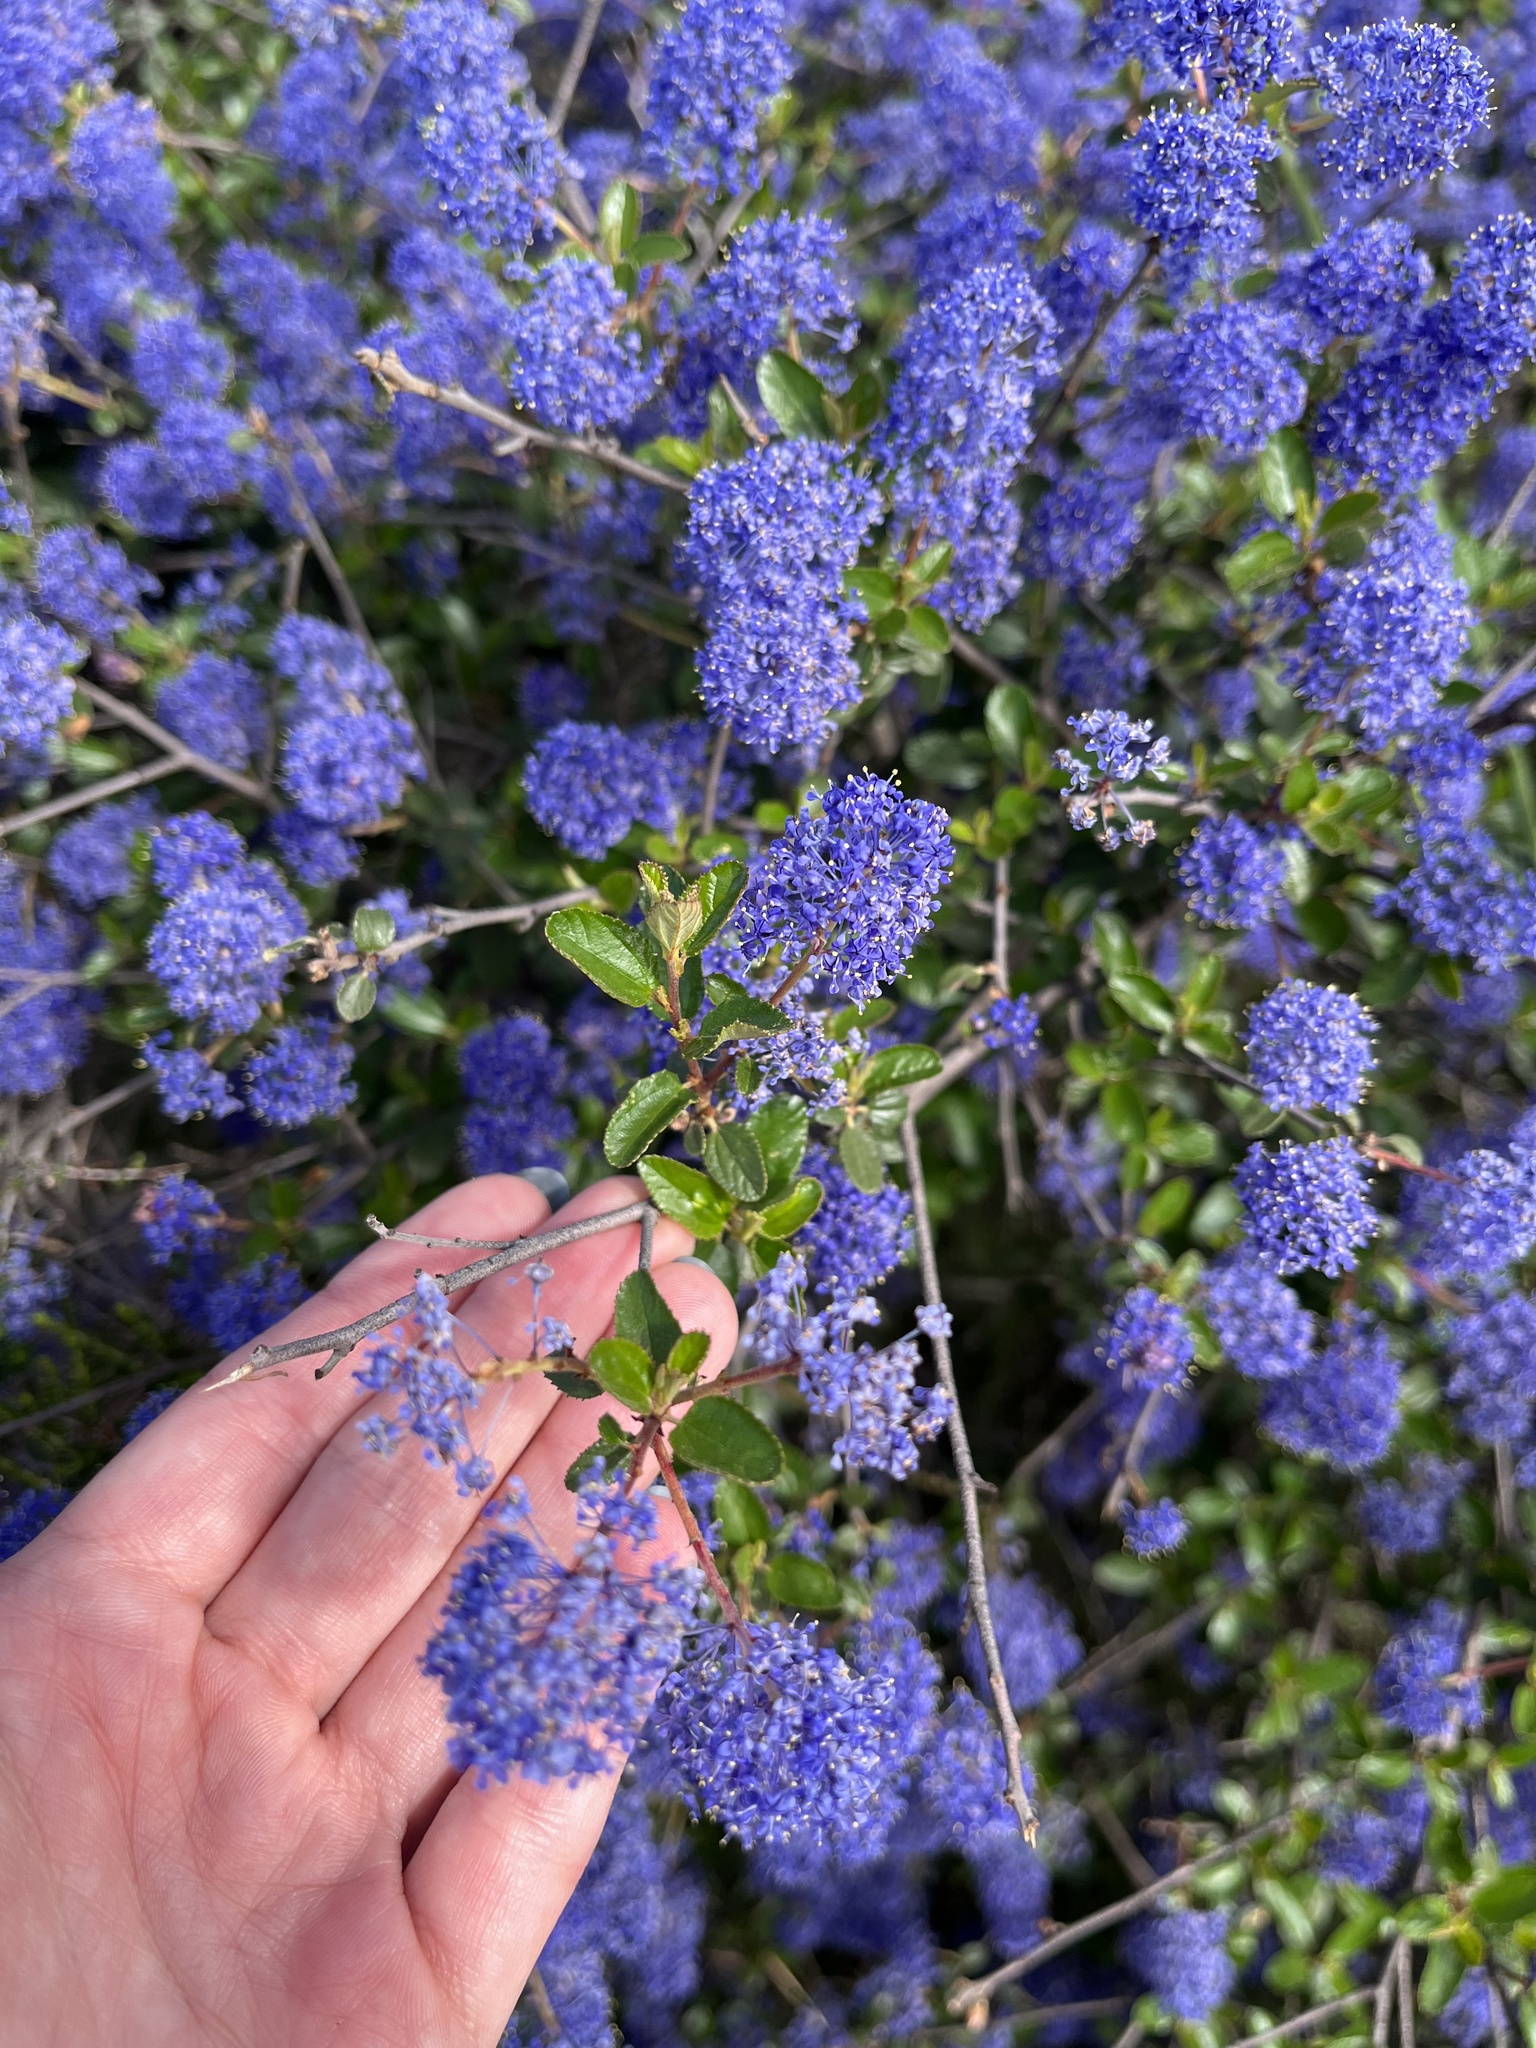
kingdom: Plantae
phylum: Tracheophyta
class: Magnoliopsida
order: Rosales
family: Rhamnaceae
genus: Ceanothus
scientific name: Ceanothus tomentosus
